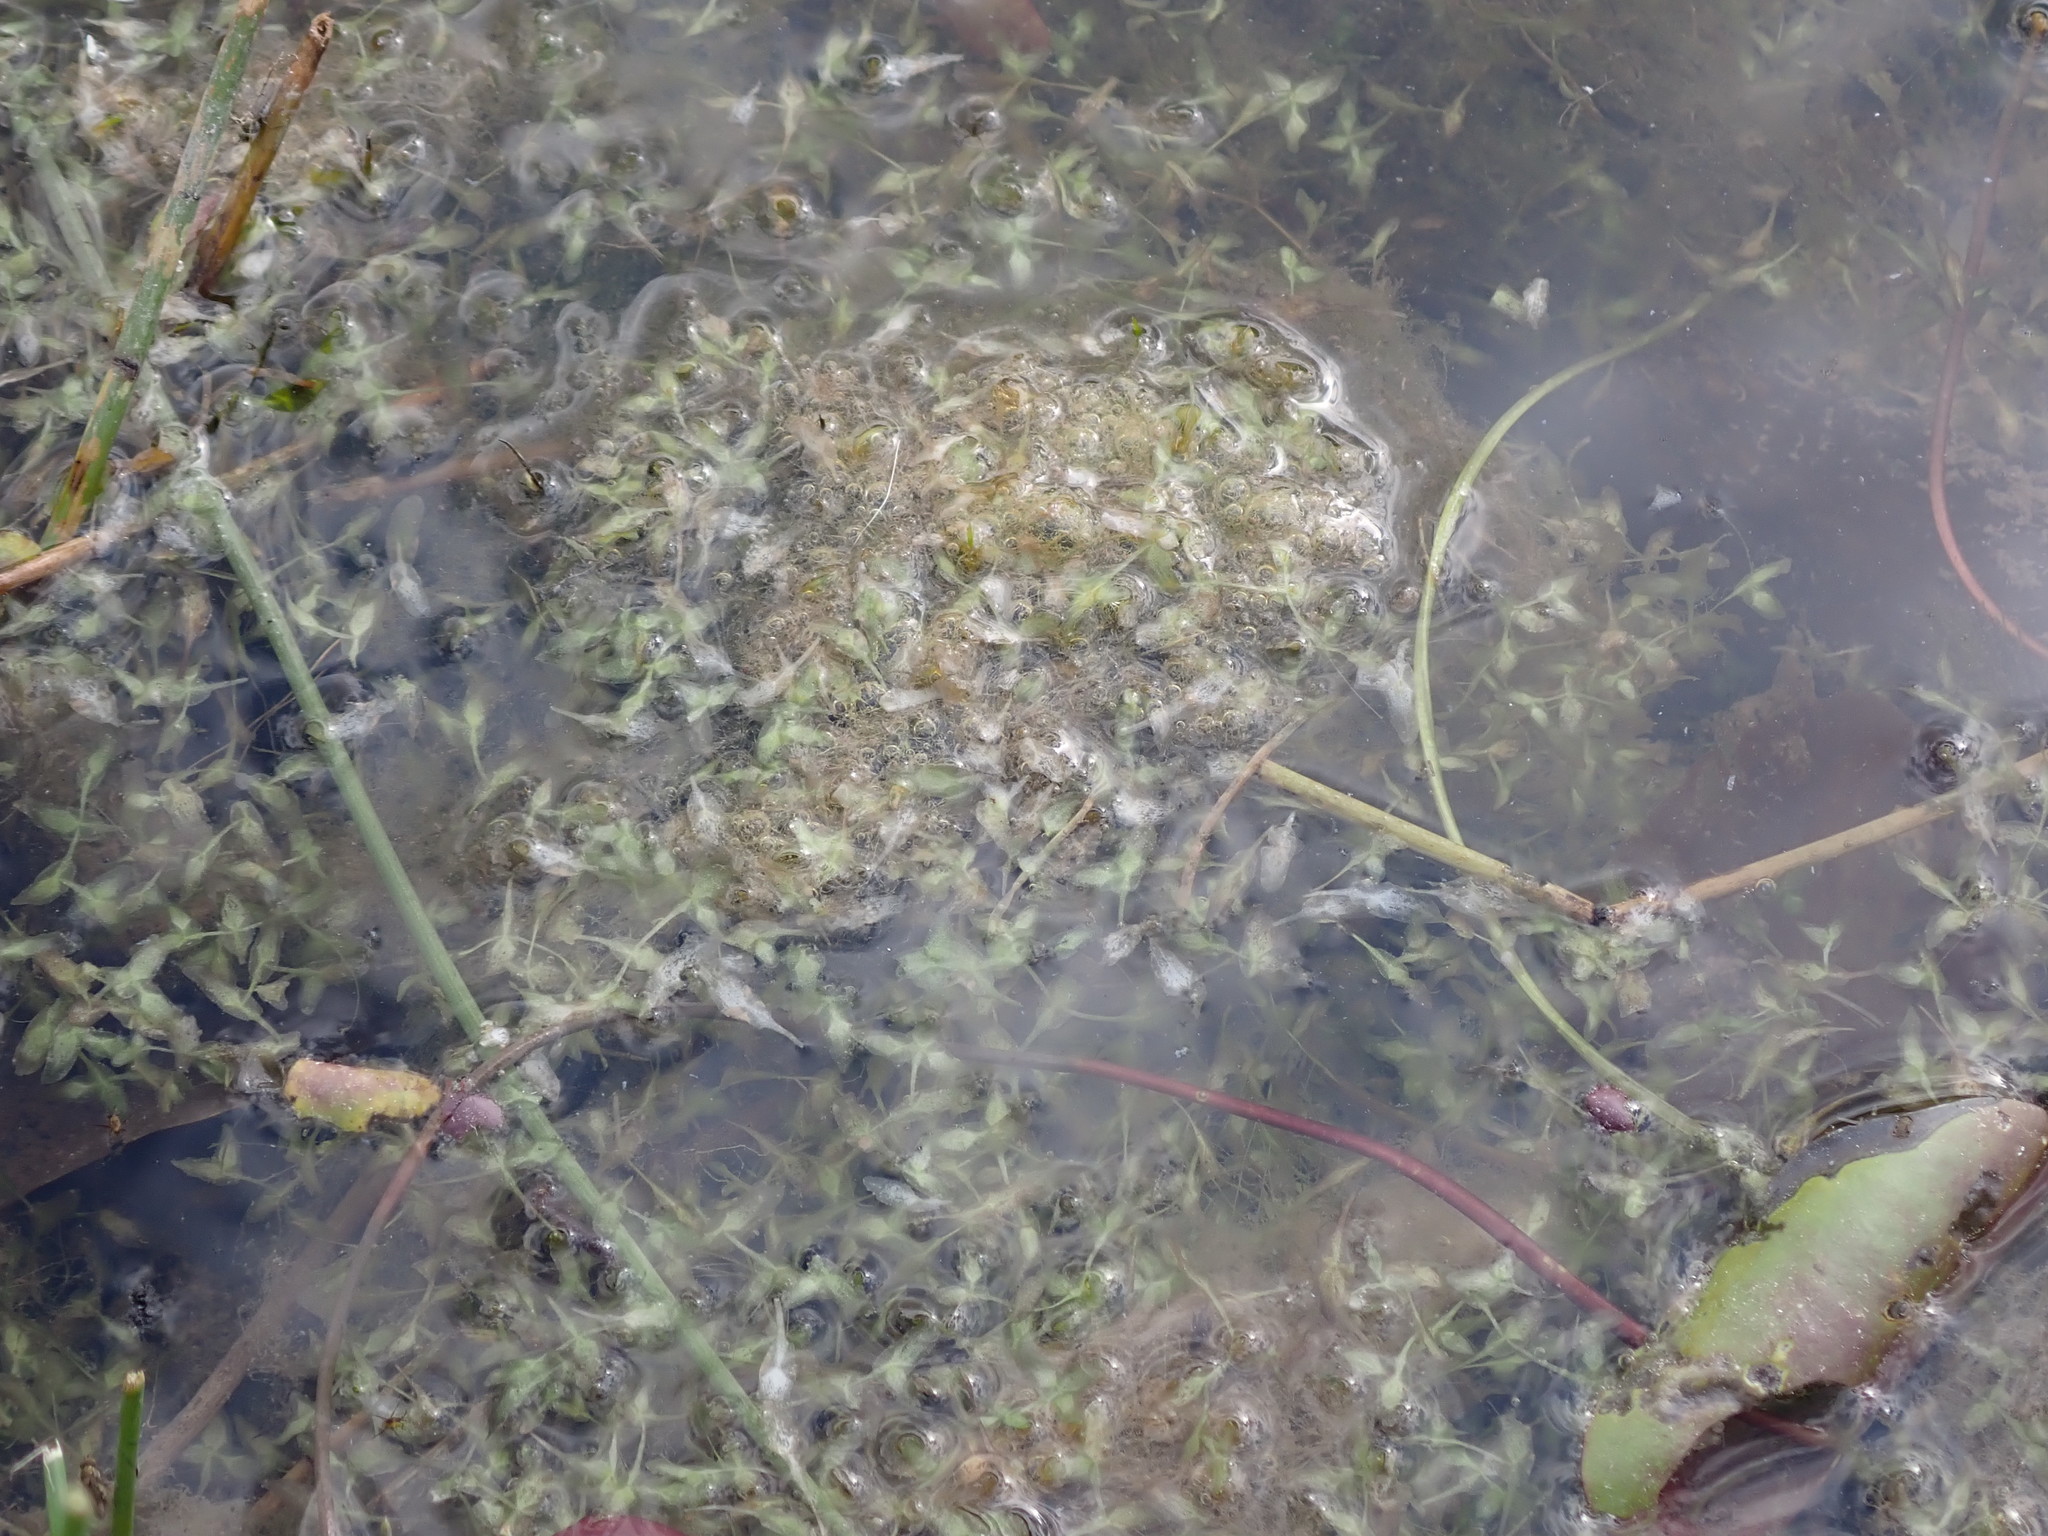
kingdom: Plantae
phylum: Tracheophyta
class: Liliopsida
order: Alismatales
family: Araceae
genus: Lemna
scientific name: Lemna trisulca
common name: Ivy-leaved duckweed
